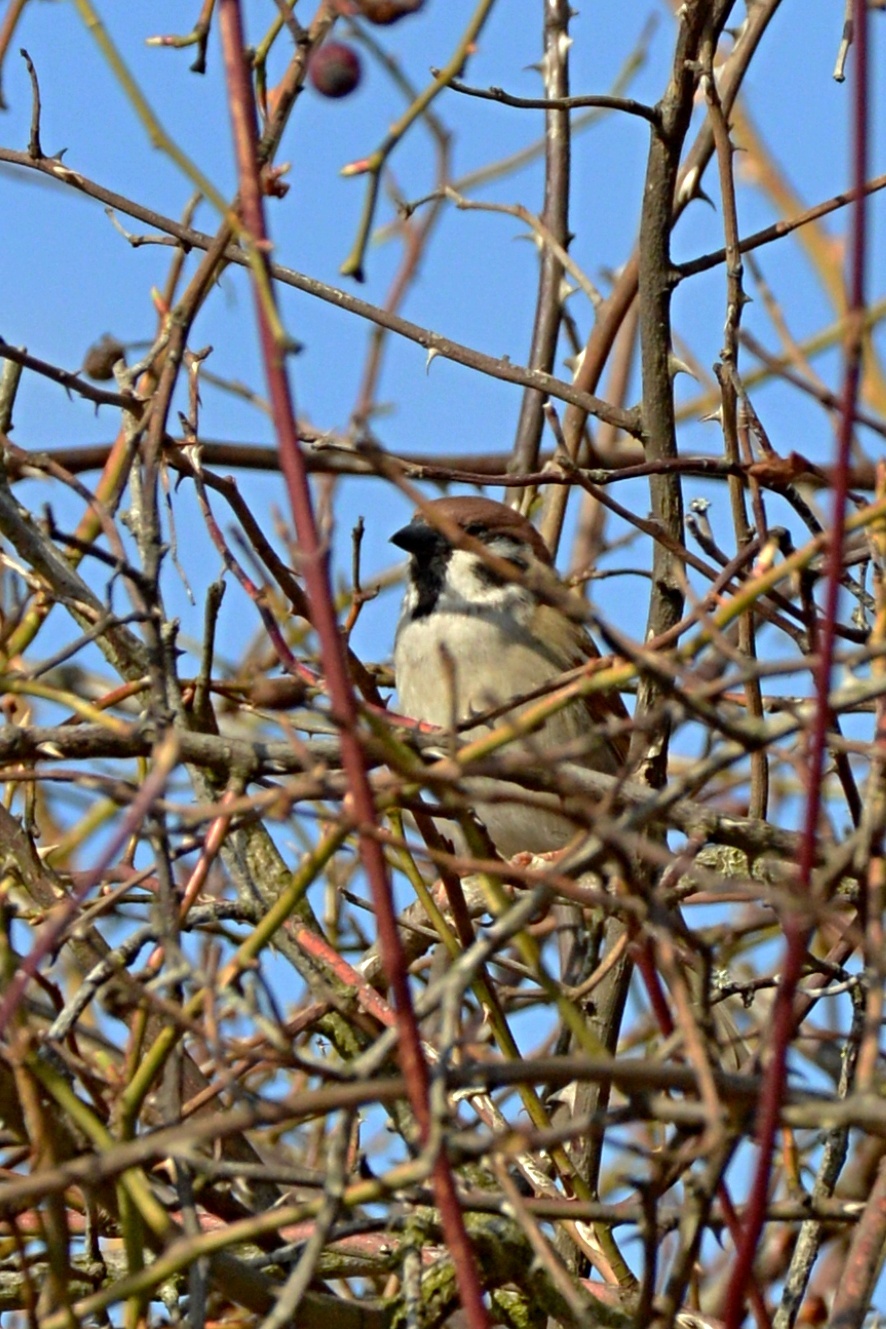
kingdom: Animalia
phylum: Chordata
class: Aves
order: Passeriformes
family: Passeridae
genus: Passer
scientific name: Passer montanus
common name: Eurasian tree sparrow
